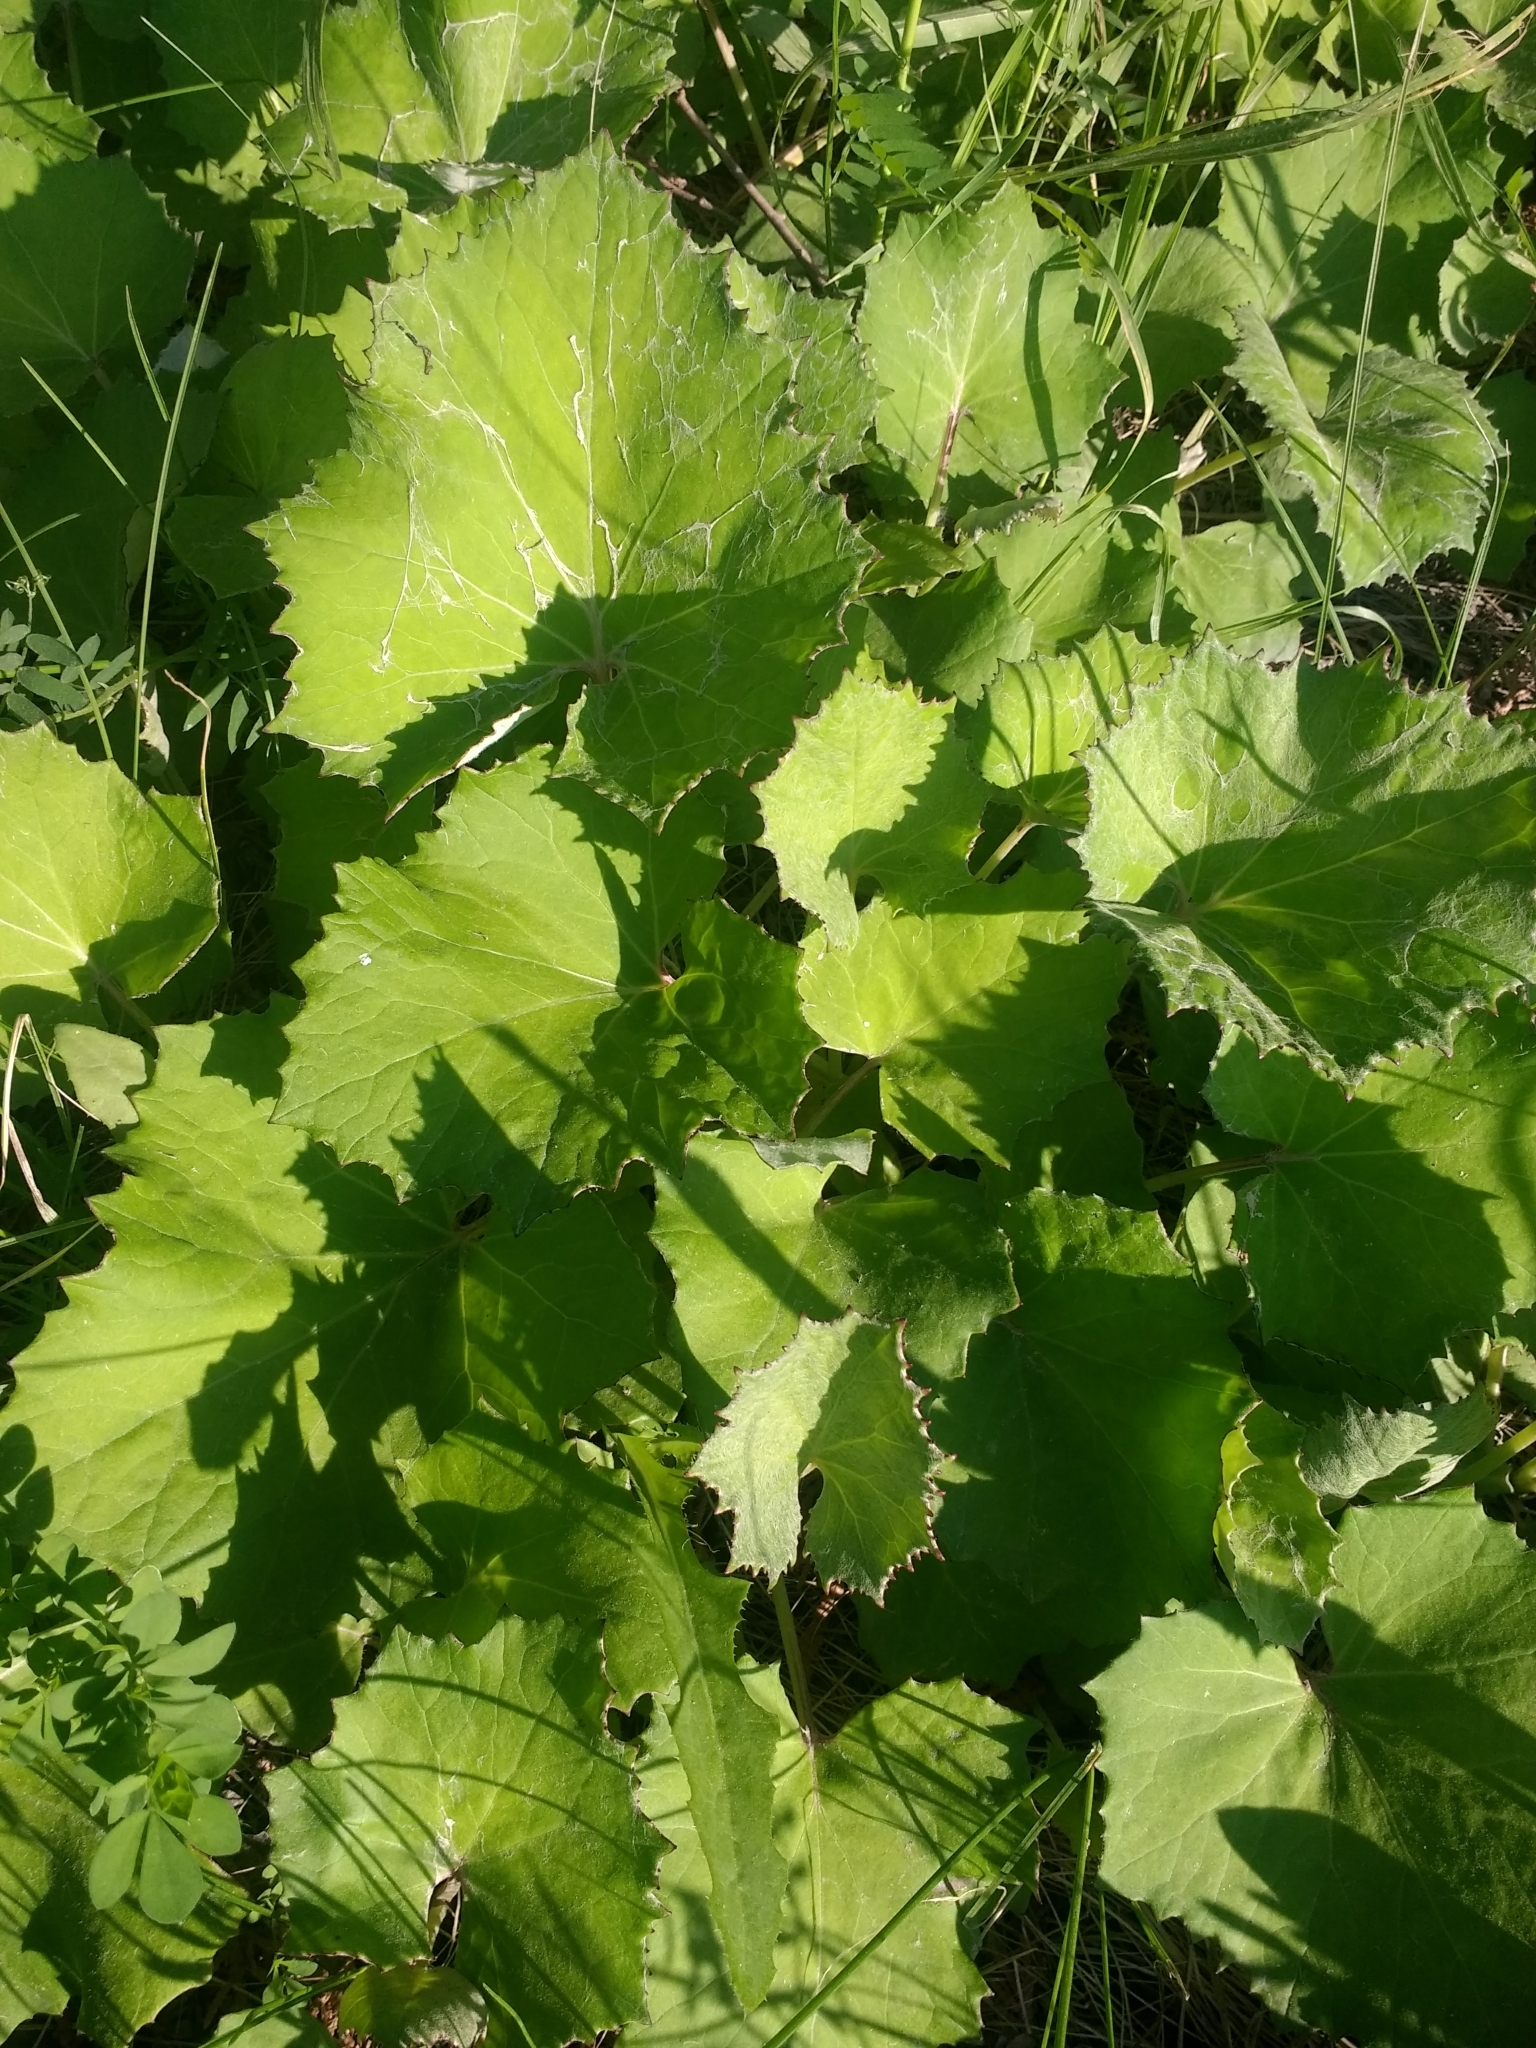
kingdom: Plantae
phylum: Tracheophyta
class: Magnoliopsida
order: Asterales
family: Asteraceae
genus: Tussilago
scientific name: Tussilago farfara
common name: Coltsfoot
